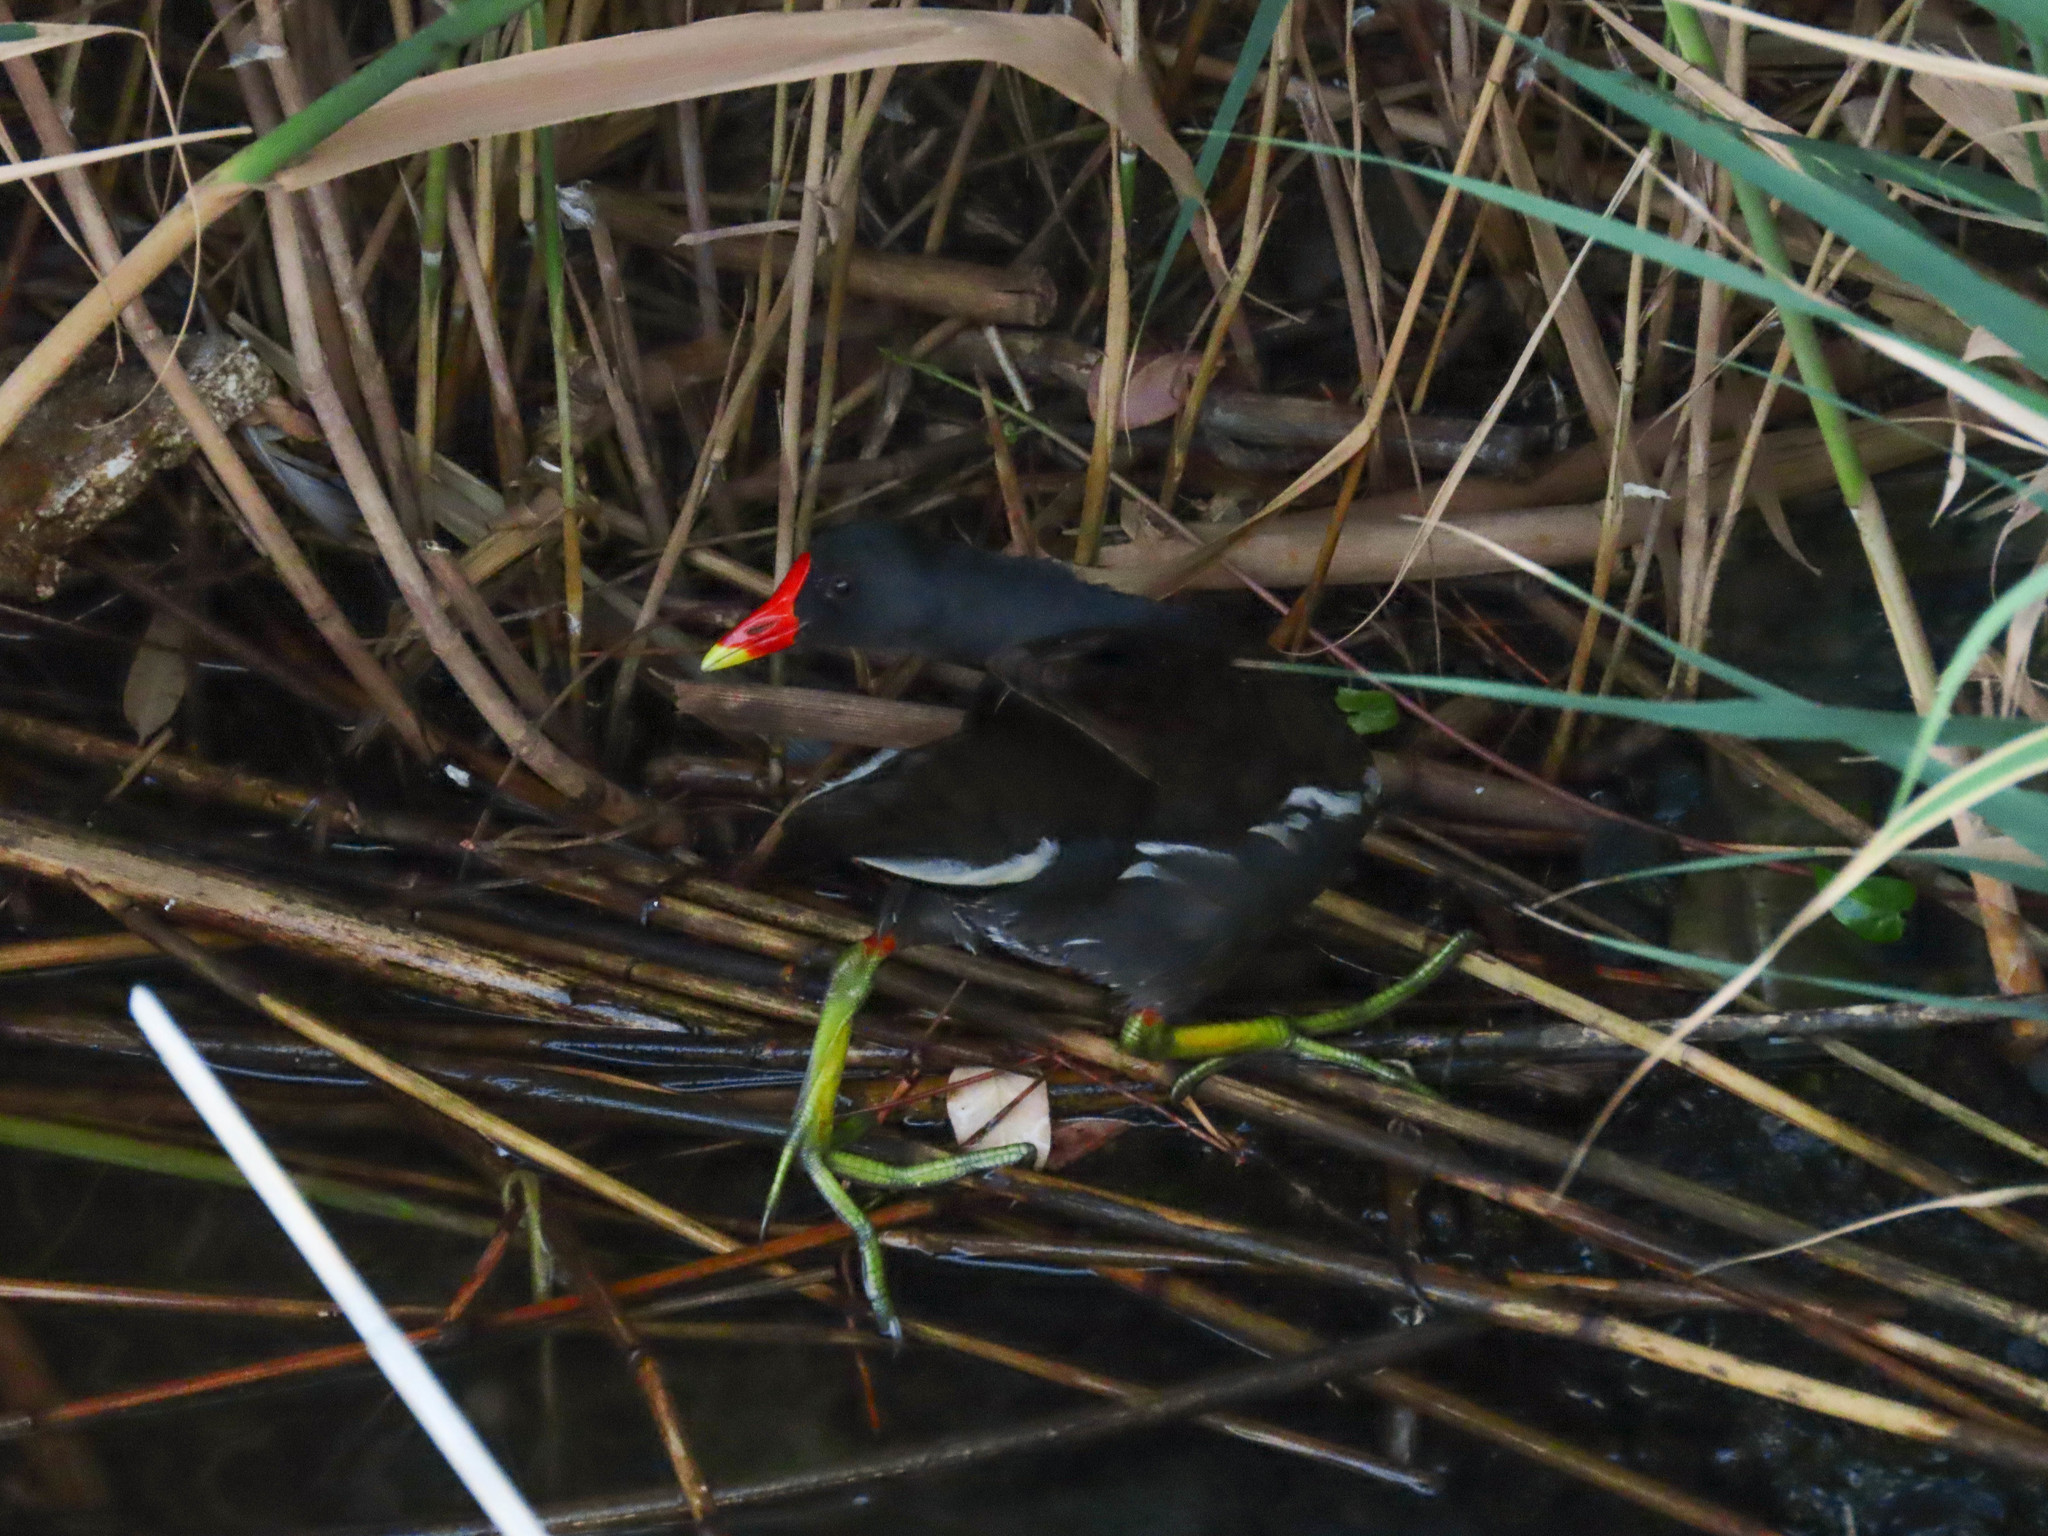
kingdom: Animalia
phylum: Chordata
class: Aves
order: Gruiformes
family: Rallidae
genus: Gallinula
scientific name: Gallinula chloropus
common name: Common moorhen
